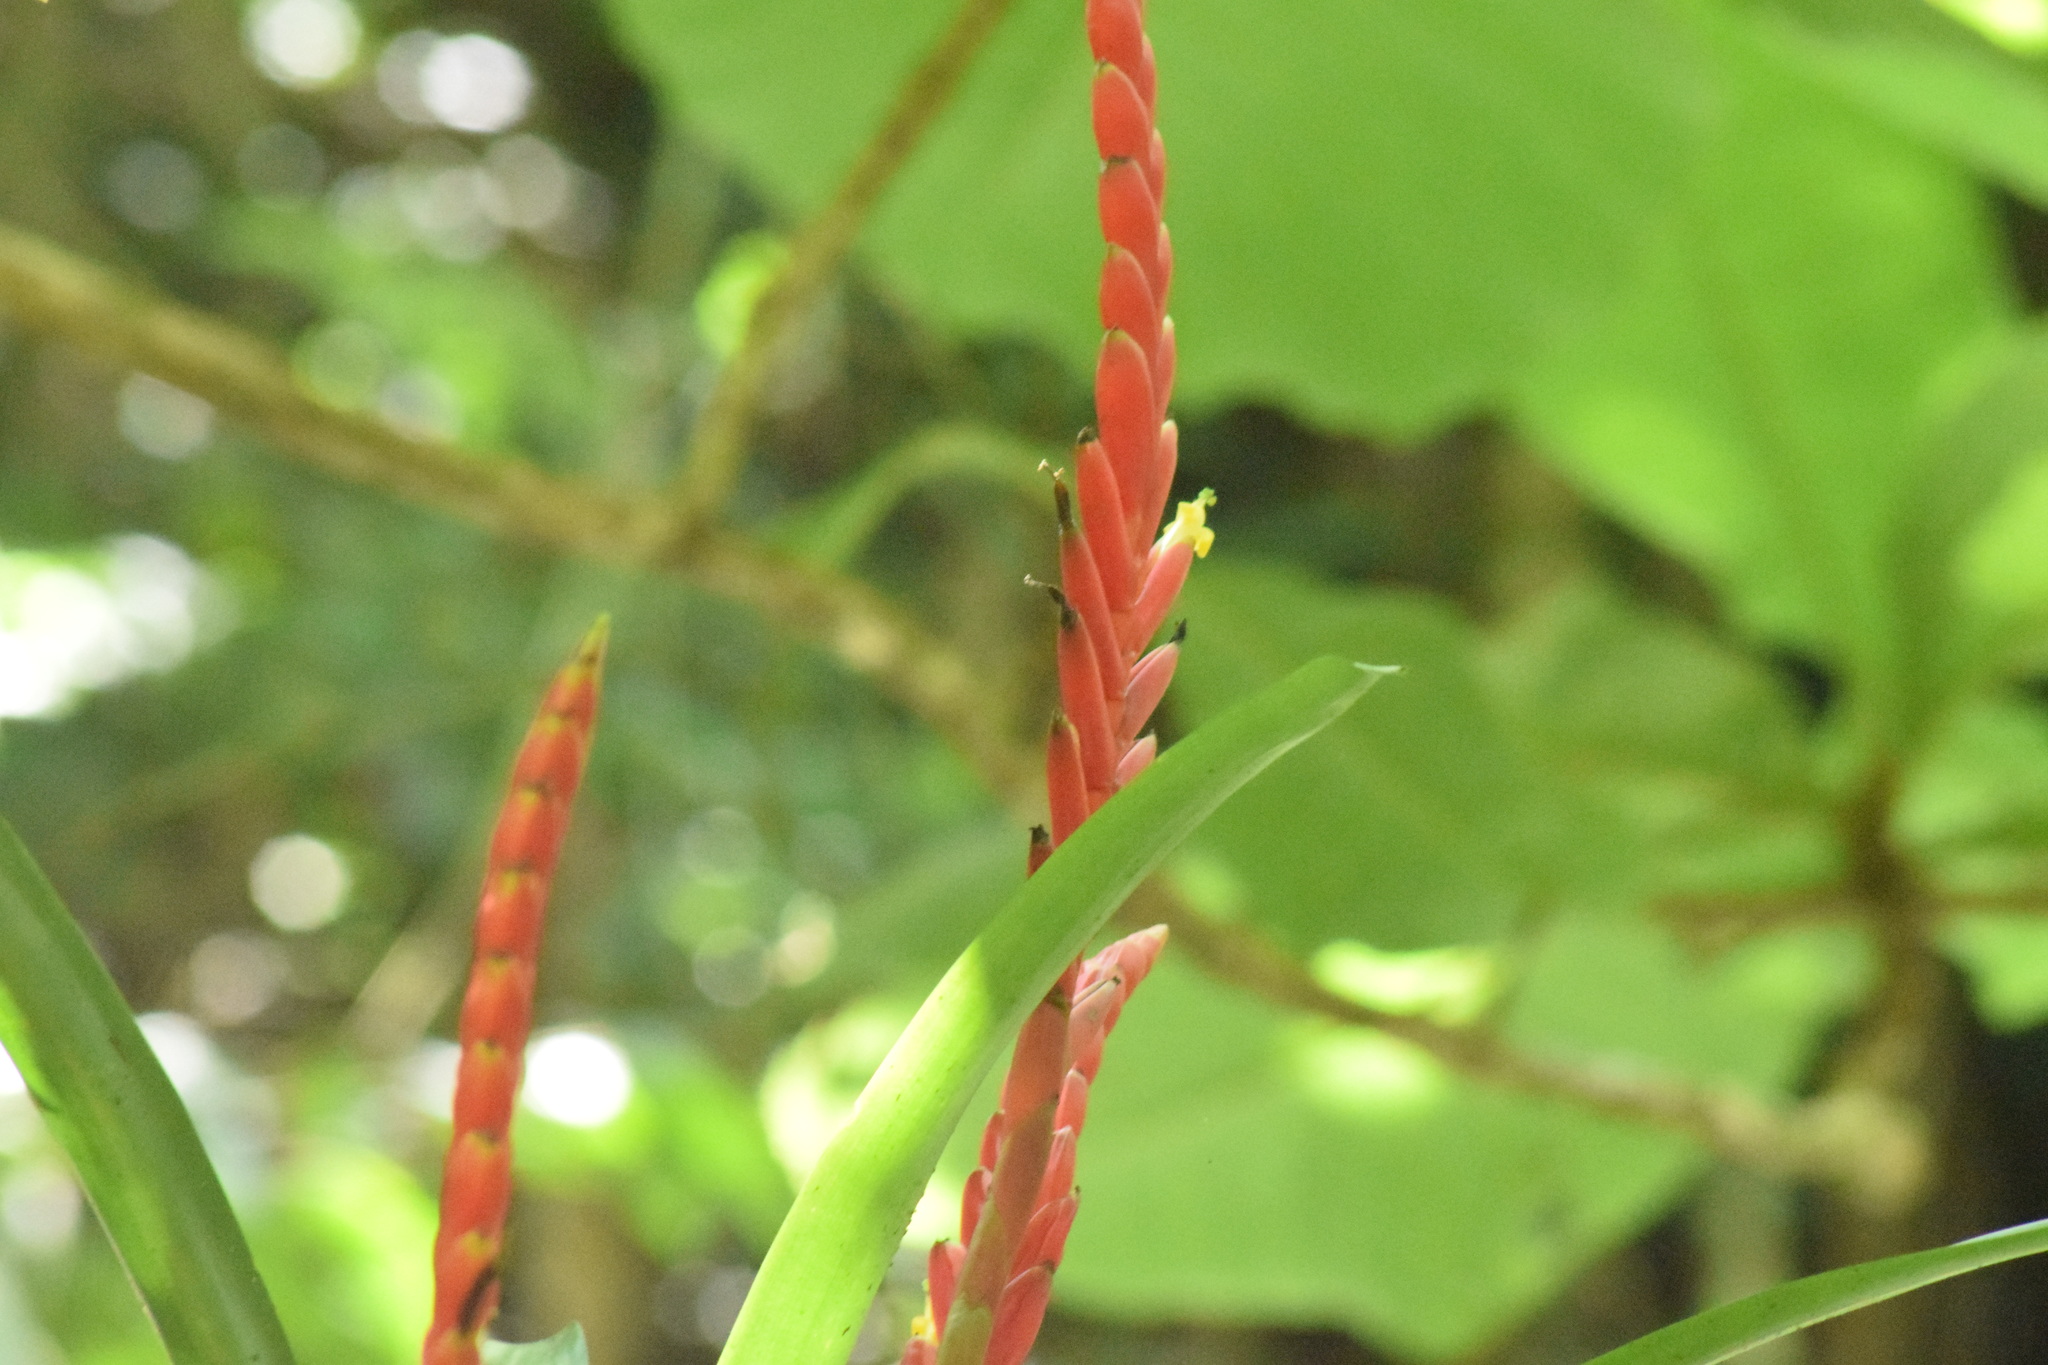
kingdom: Plantae
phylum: Tracheophyta
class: Liliopsida
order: Poales
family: Bromeliaceae
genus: Vriesea
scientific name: Vriesea ensiformis
